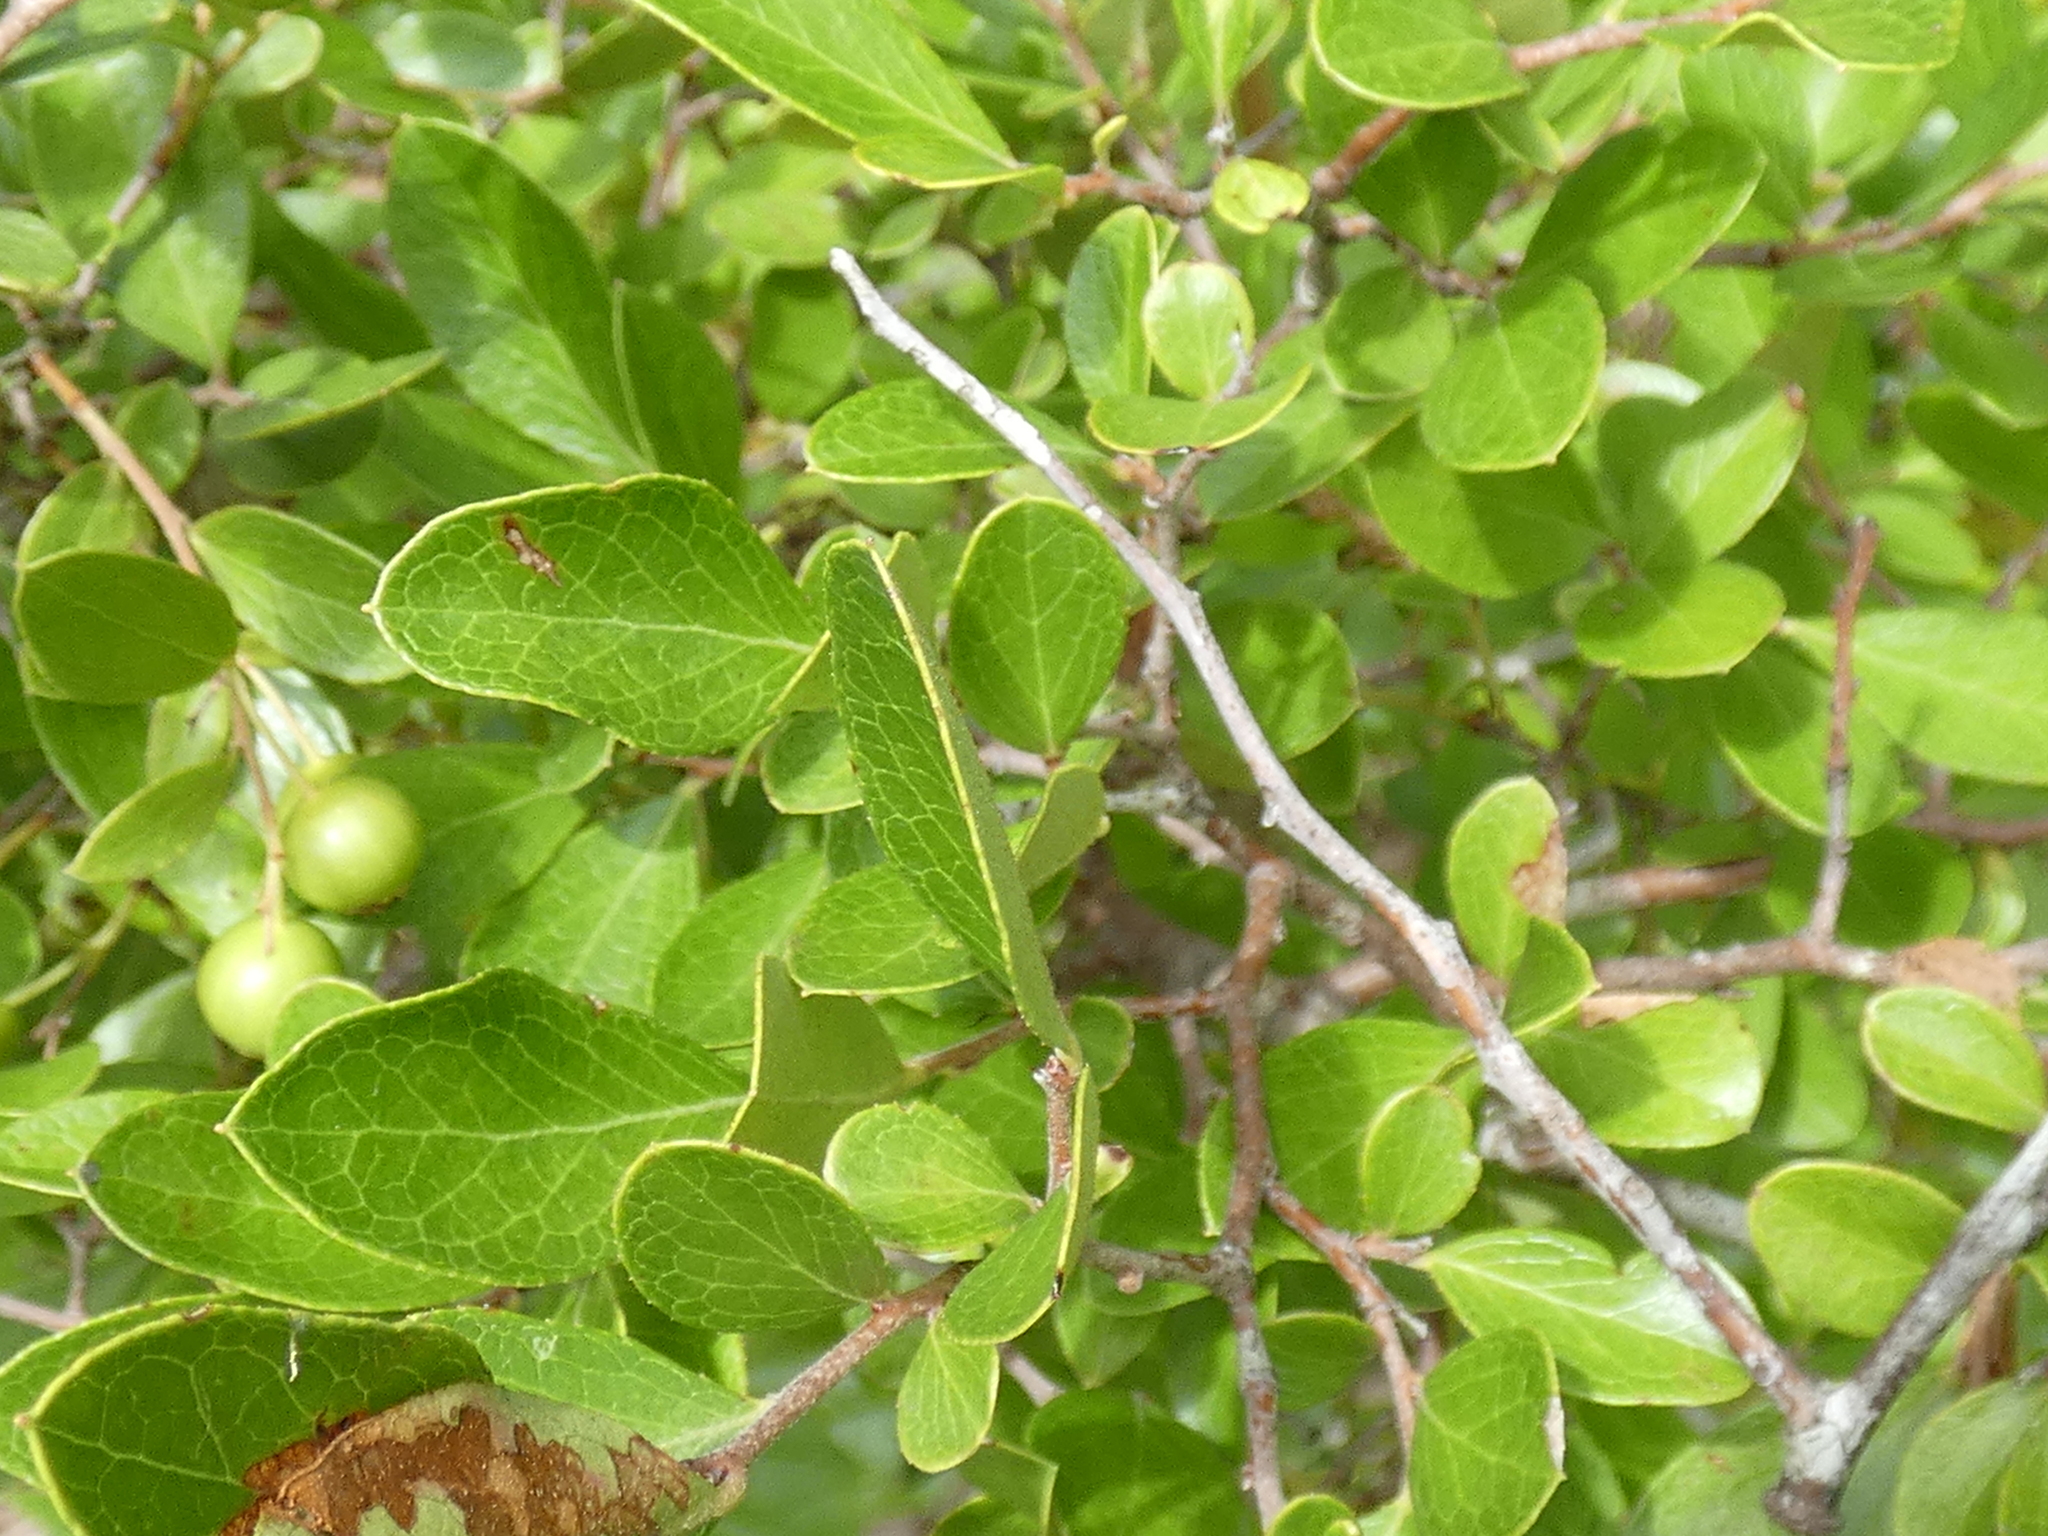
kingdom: Plantae
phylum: Tracheophyta
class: Magnoliopsida
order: Ericales
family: Ericaceae
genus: Vaccinium
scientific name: Vaccinium arboreum
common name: Farkleberry
